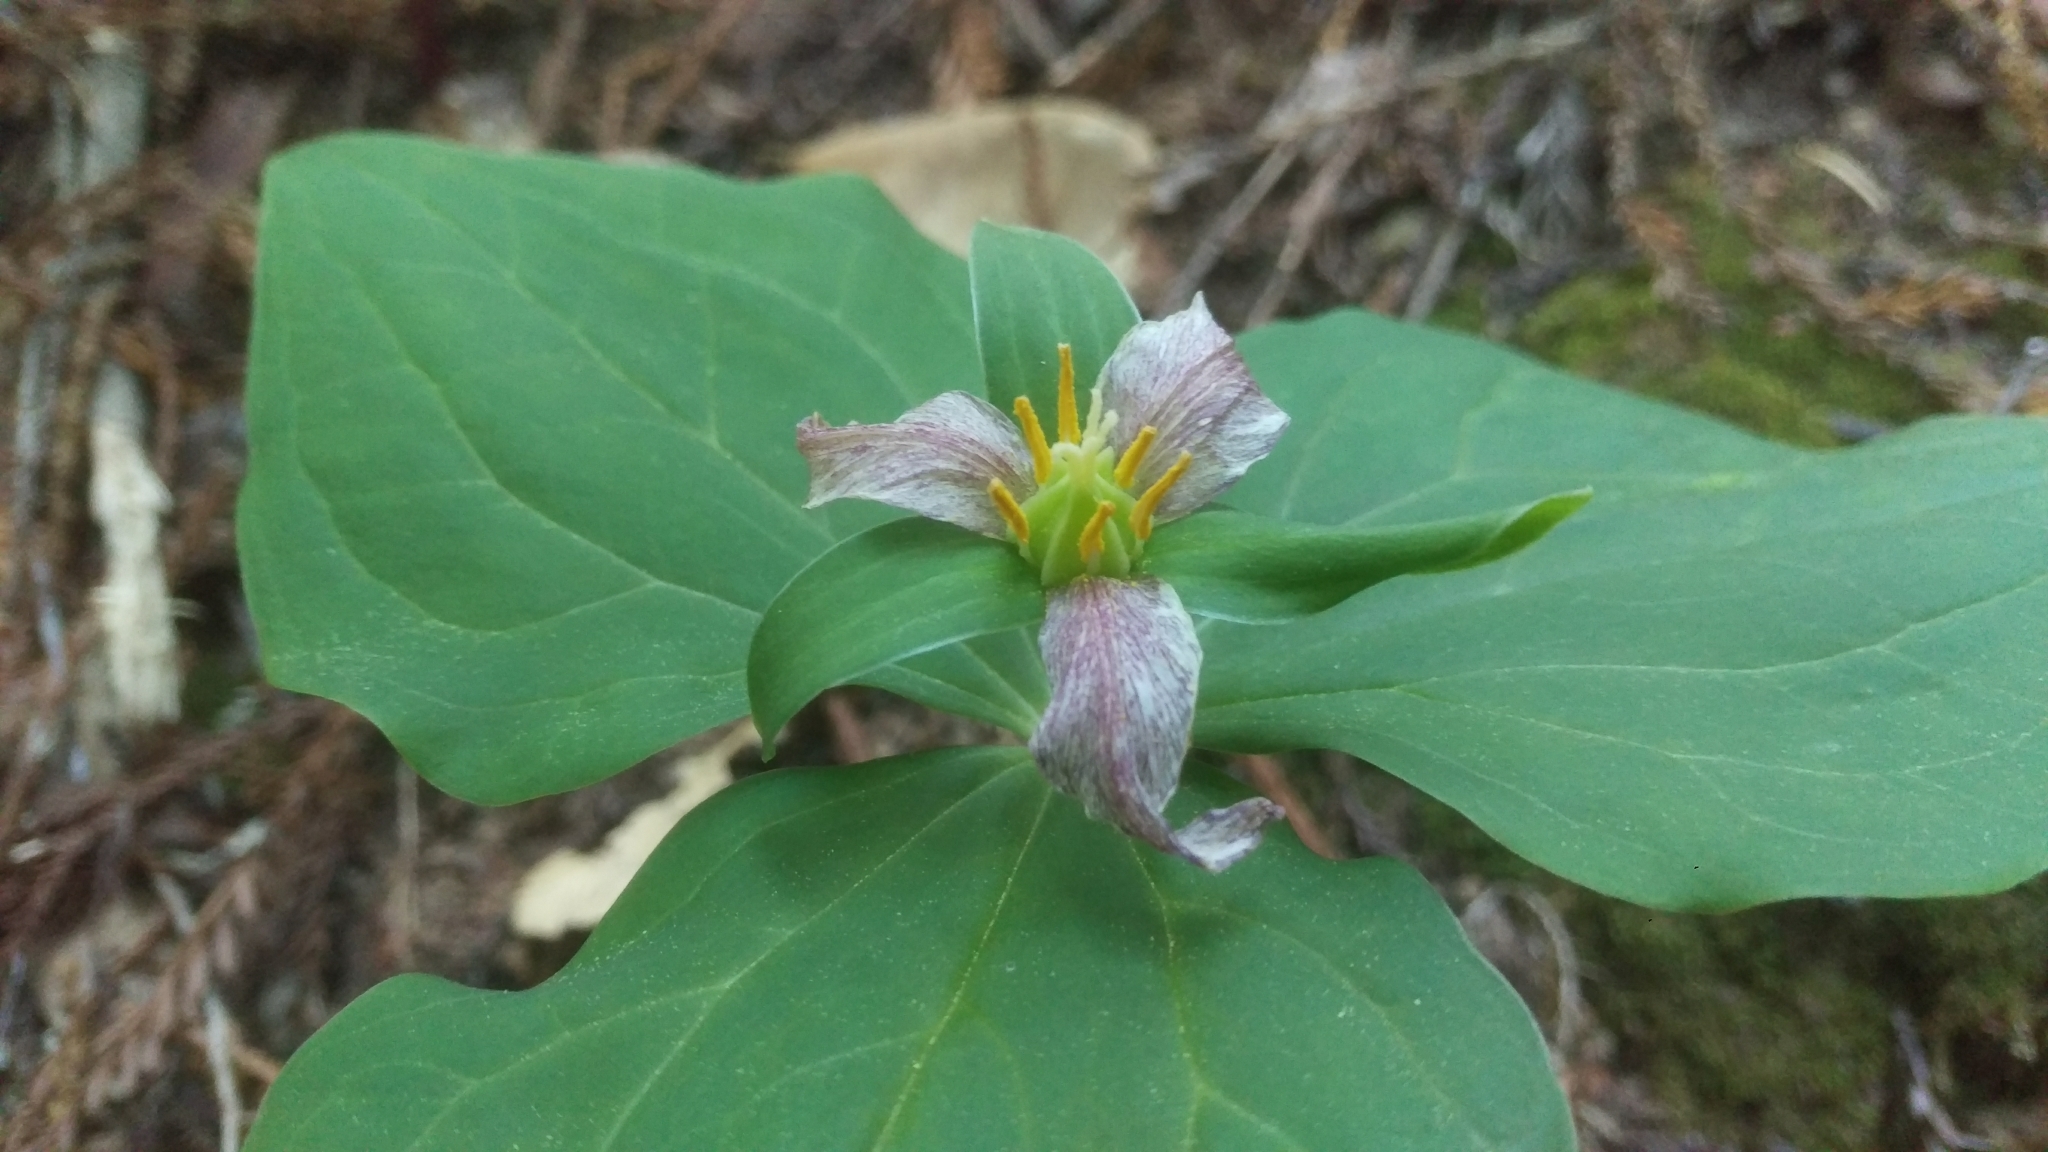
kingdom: Plantae
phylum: Tracheophyta
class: Liliopsida
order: Liliales
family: Melanthiaceae
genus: Trillium
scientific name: Trillium ovatum
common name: Pacific trillium
